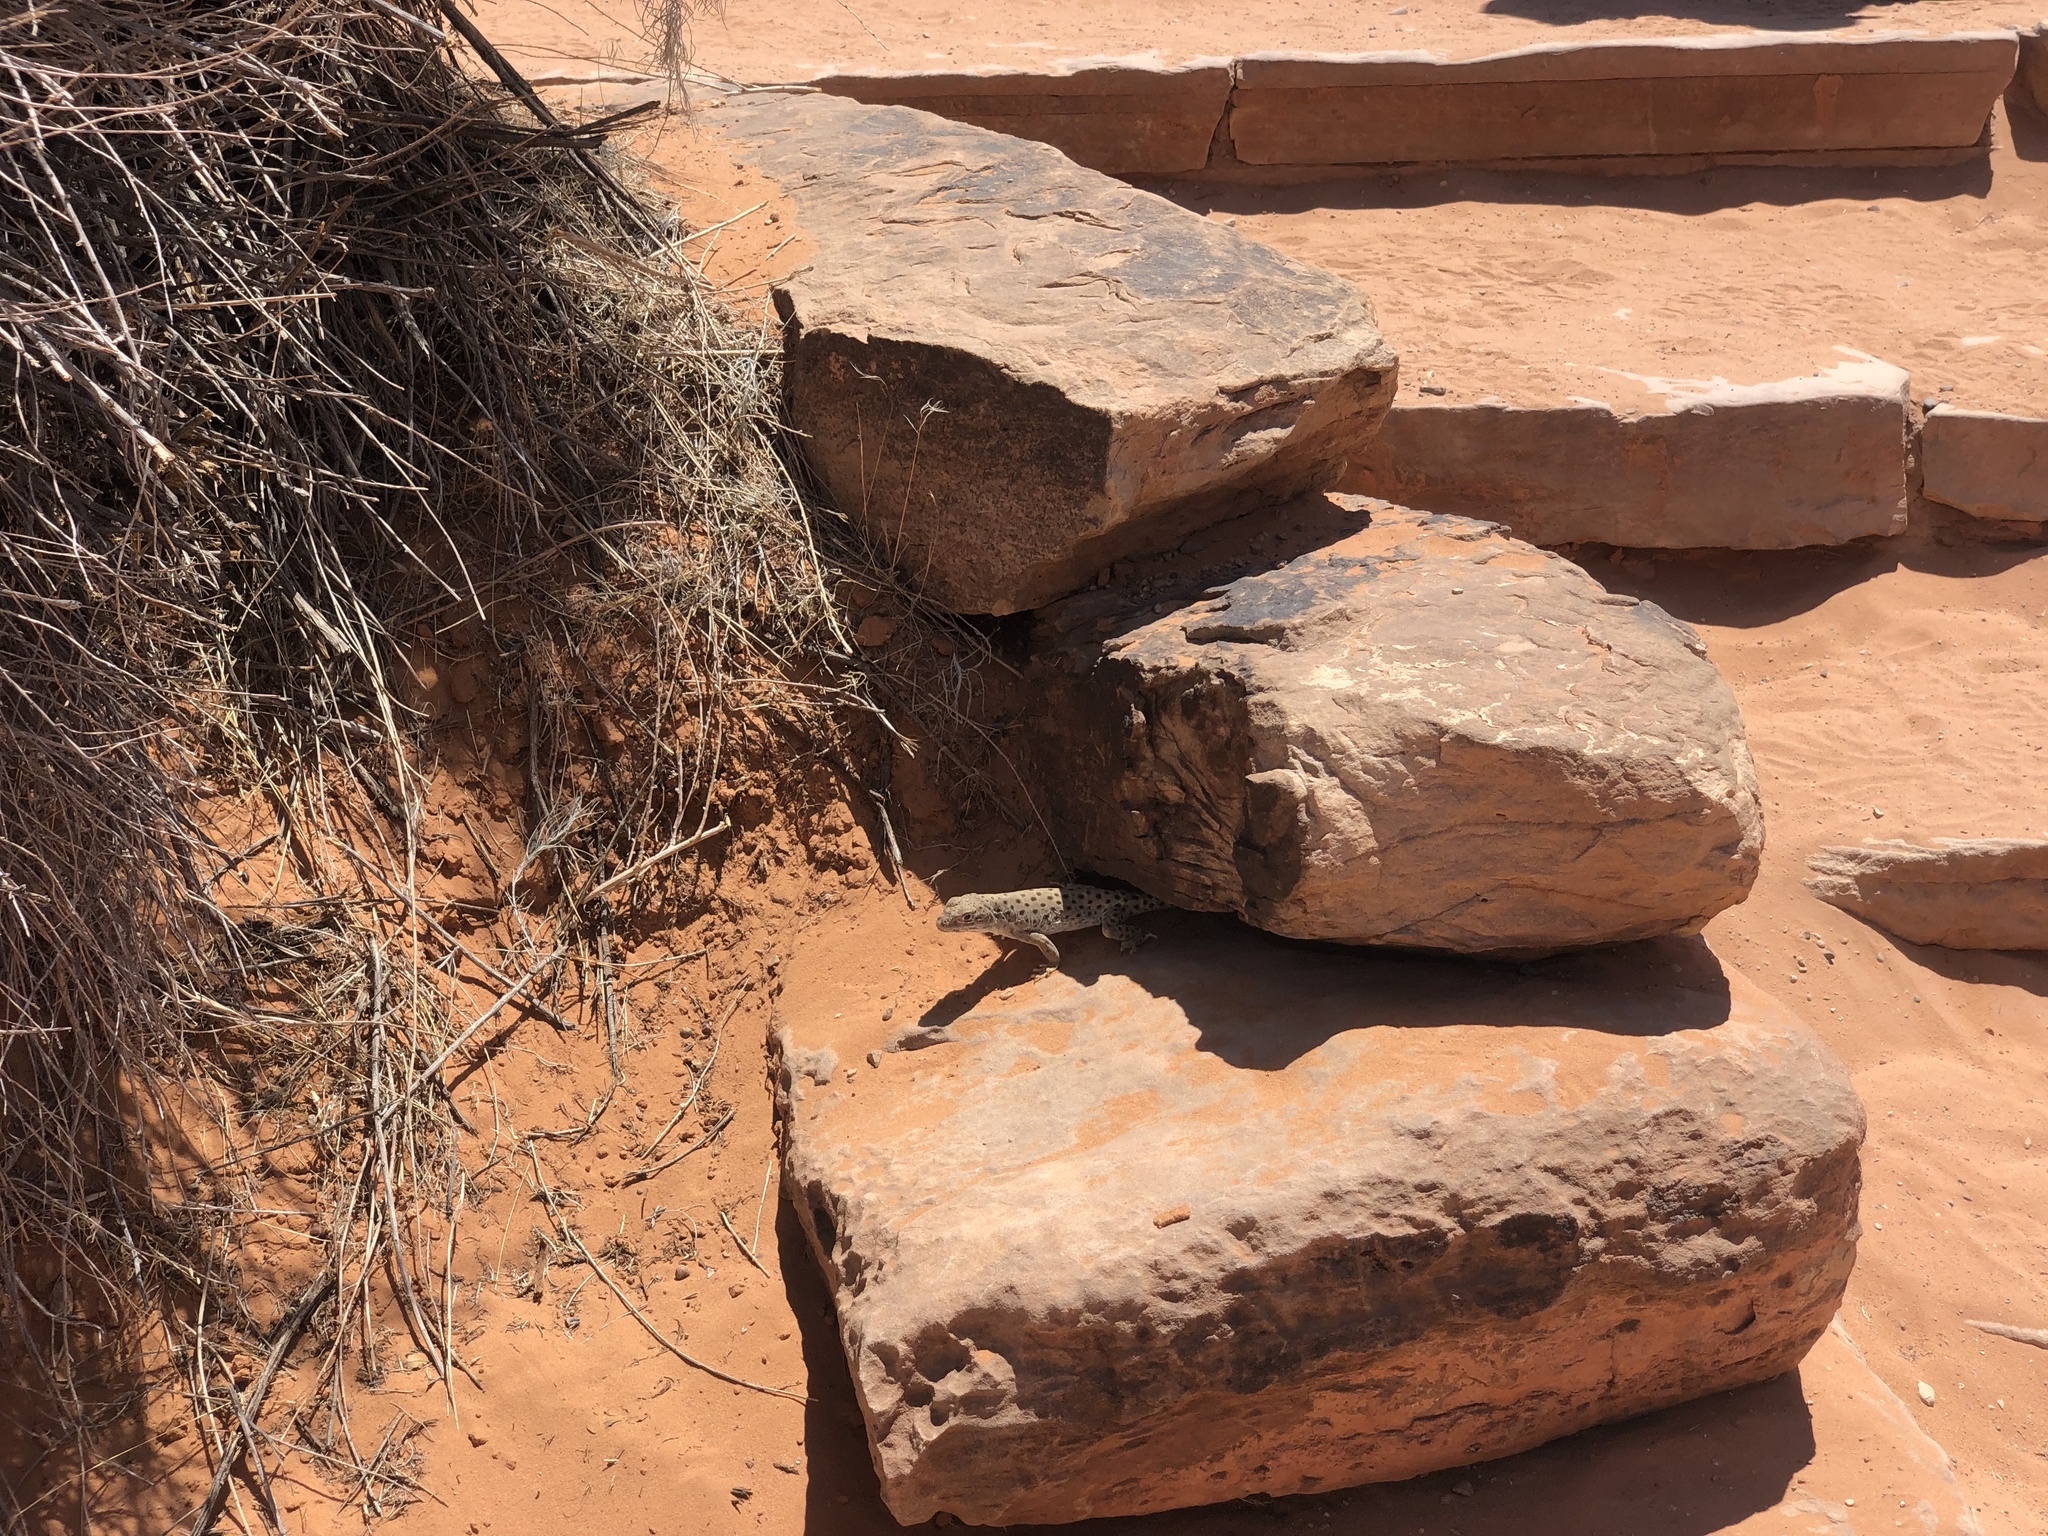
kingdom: Animalia
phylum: Chordata
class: Squamata
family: Crotaphytidae
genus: Gambelia
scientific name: Gambelia wislizenii
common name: Longnose leopard lizard
